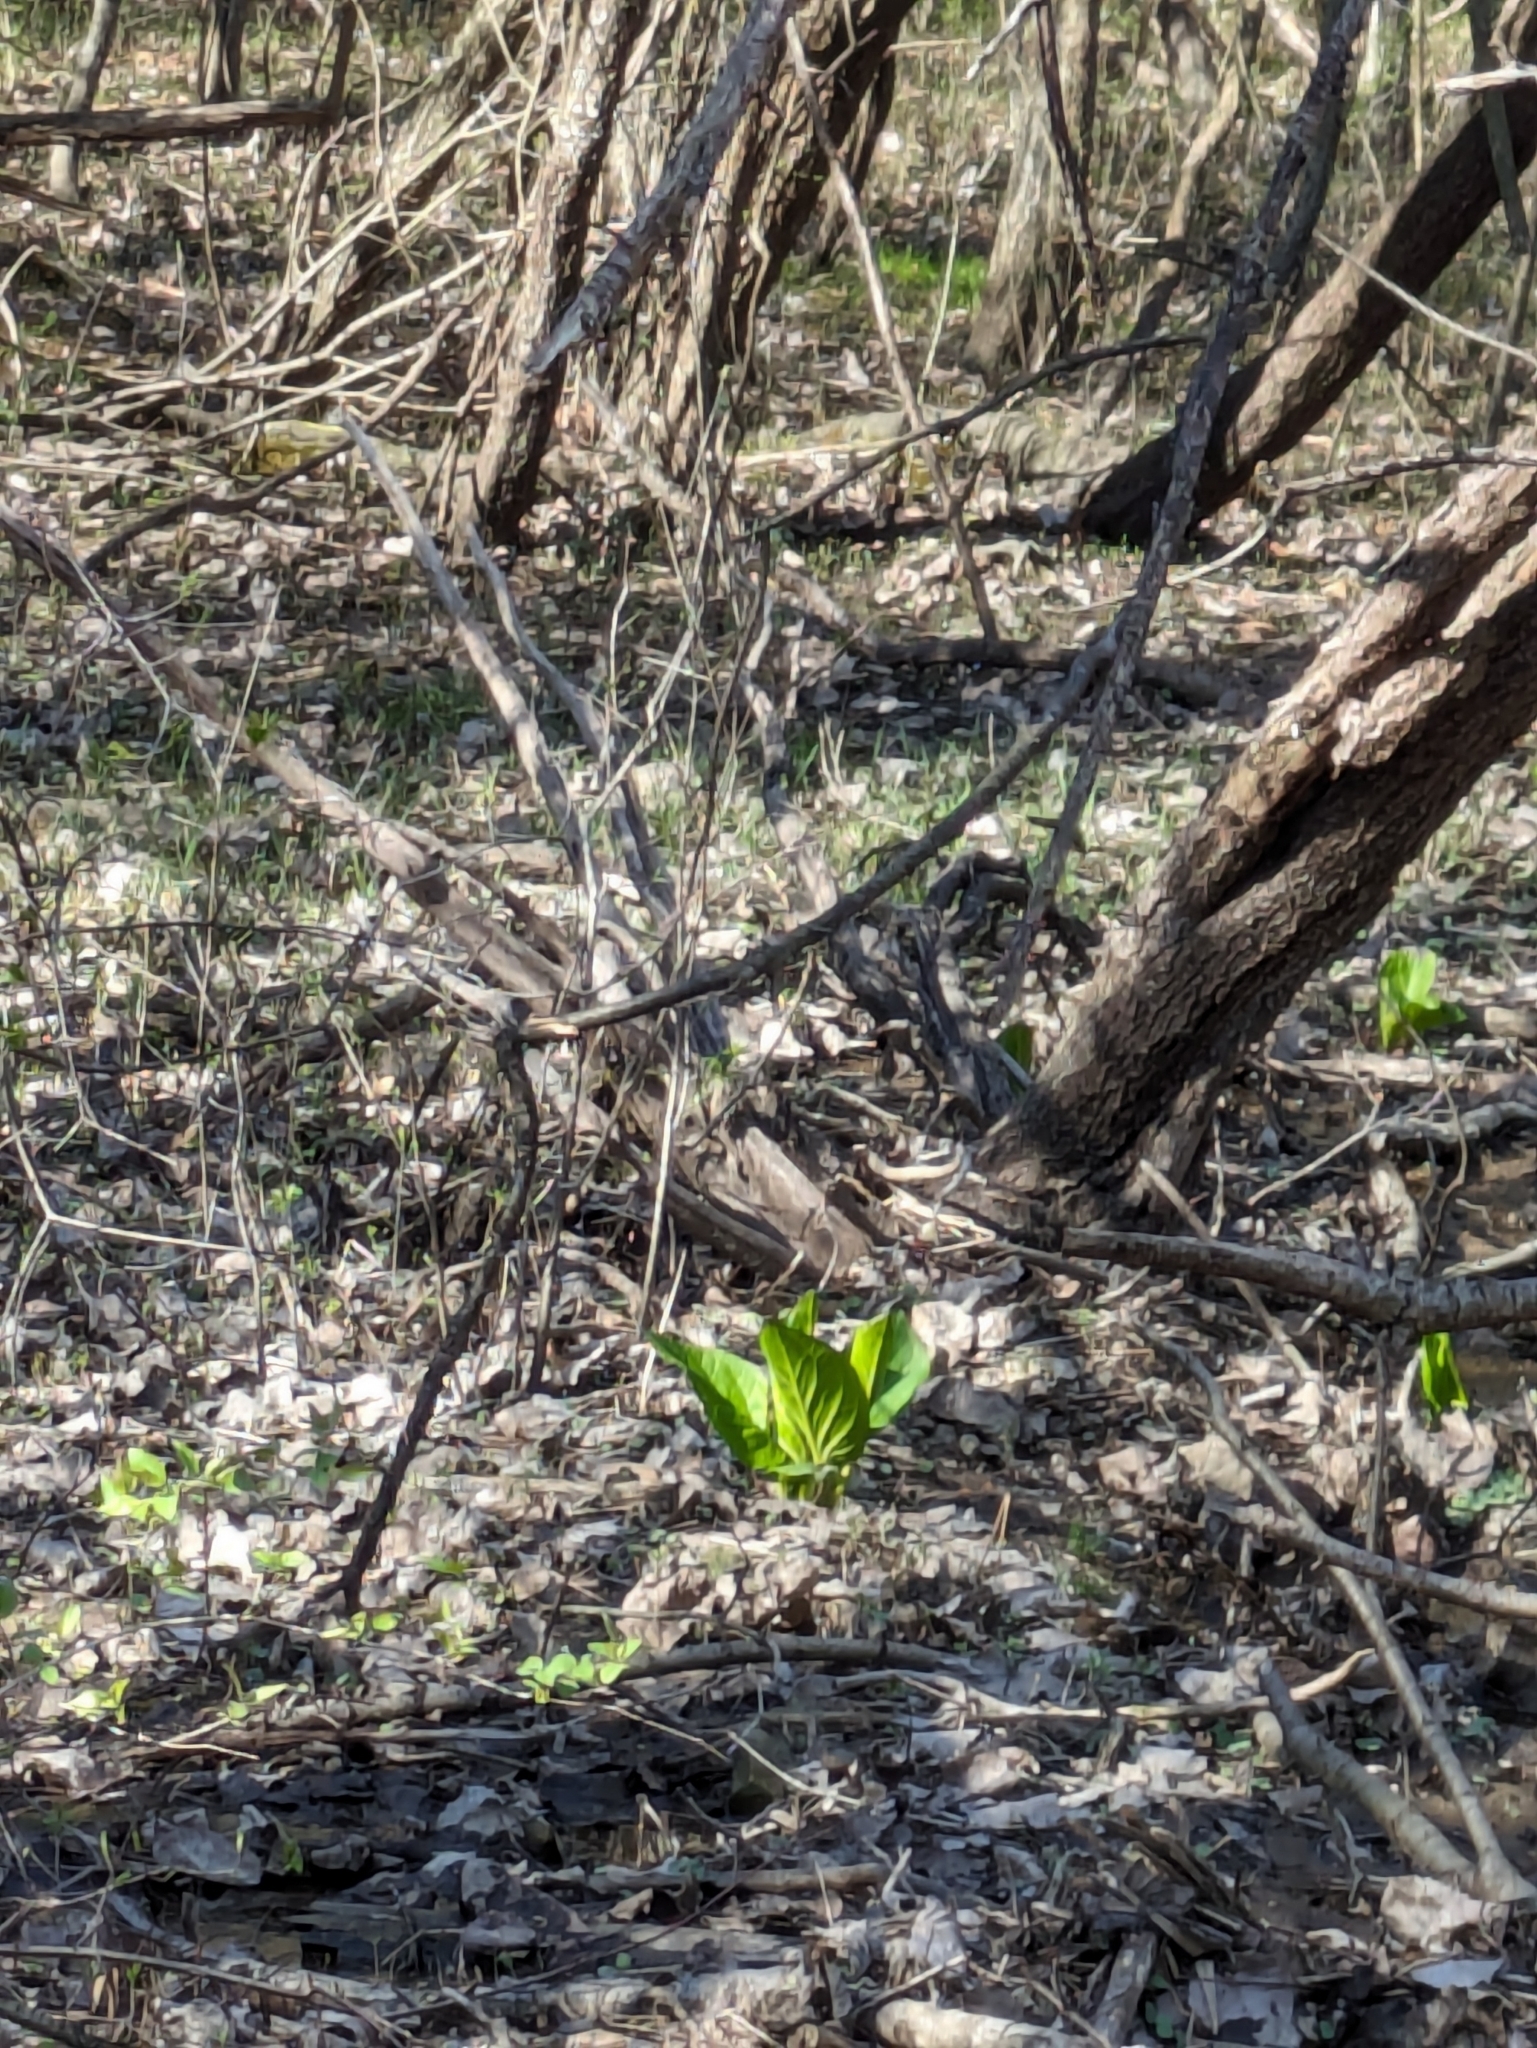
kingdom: Plantae
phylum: Tracheophyta
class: Liliopsida
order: Alismatales
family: Araceae
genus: Symplocarpus
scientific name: Symplocarpus foetidus
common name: Eastern skunk cabbage
